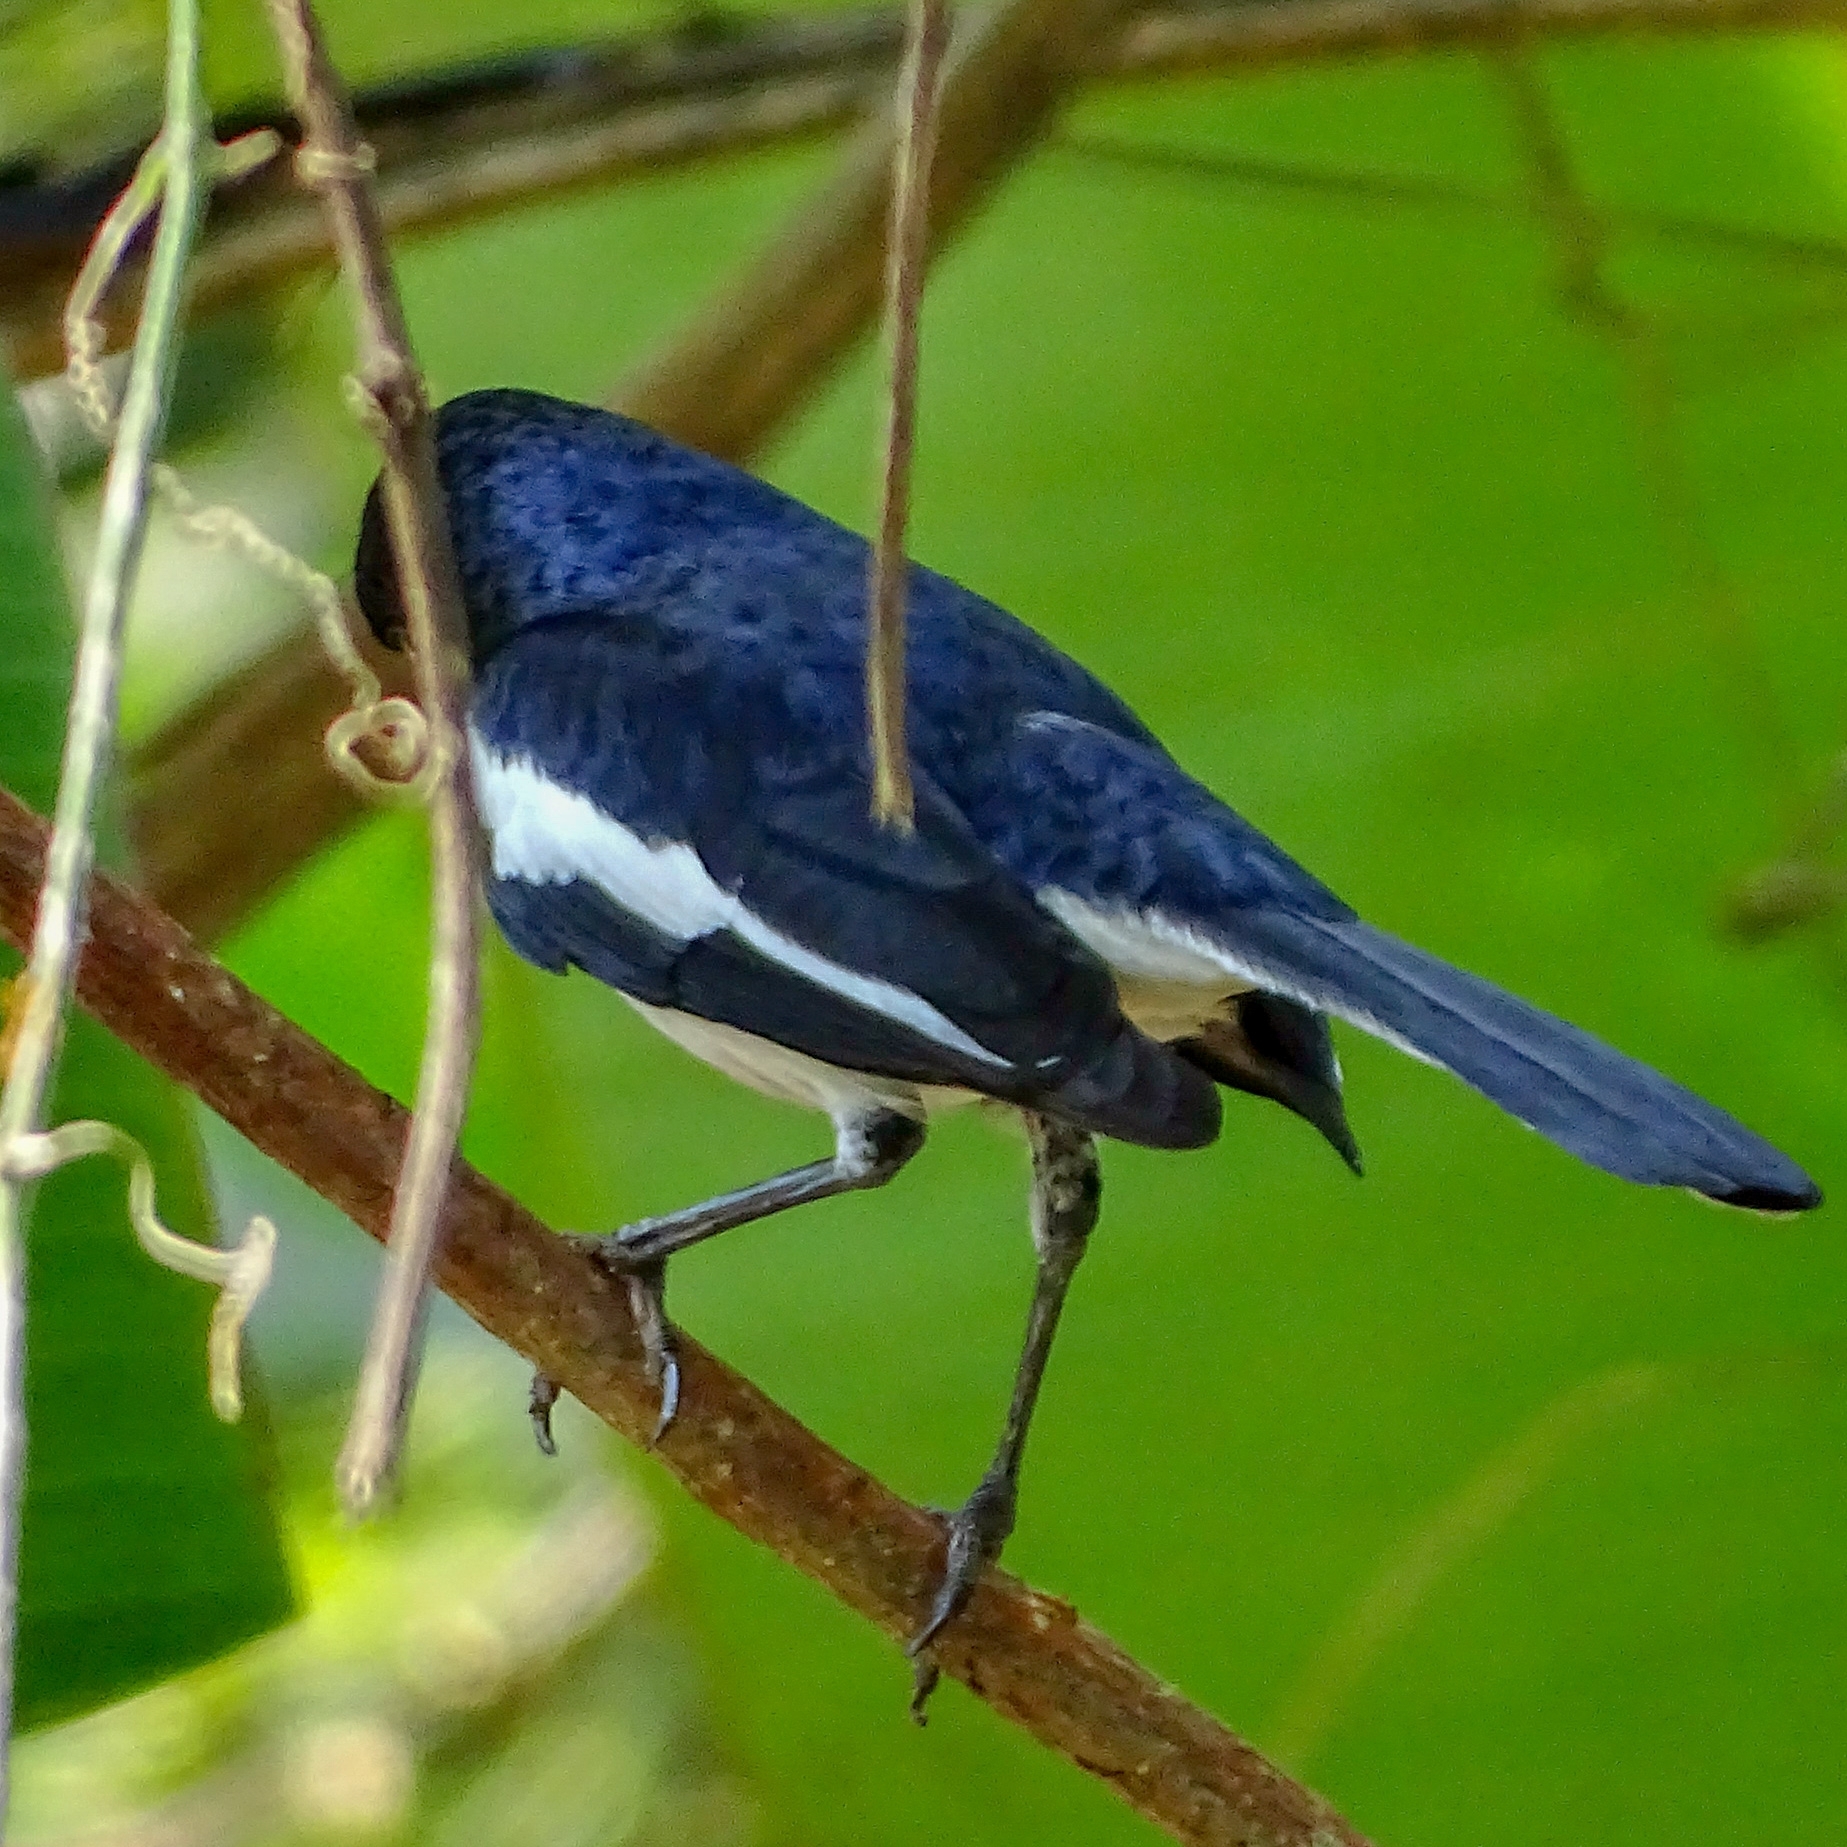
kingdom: Animalia
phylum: Chordata
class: Aves
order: Passeriformes
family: Muscicapidae
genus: Copsychus
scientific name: Copsychus saularis
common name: Oriental magpie-robin
